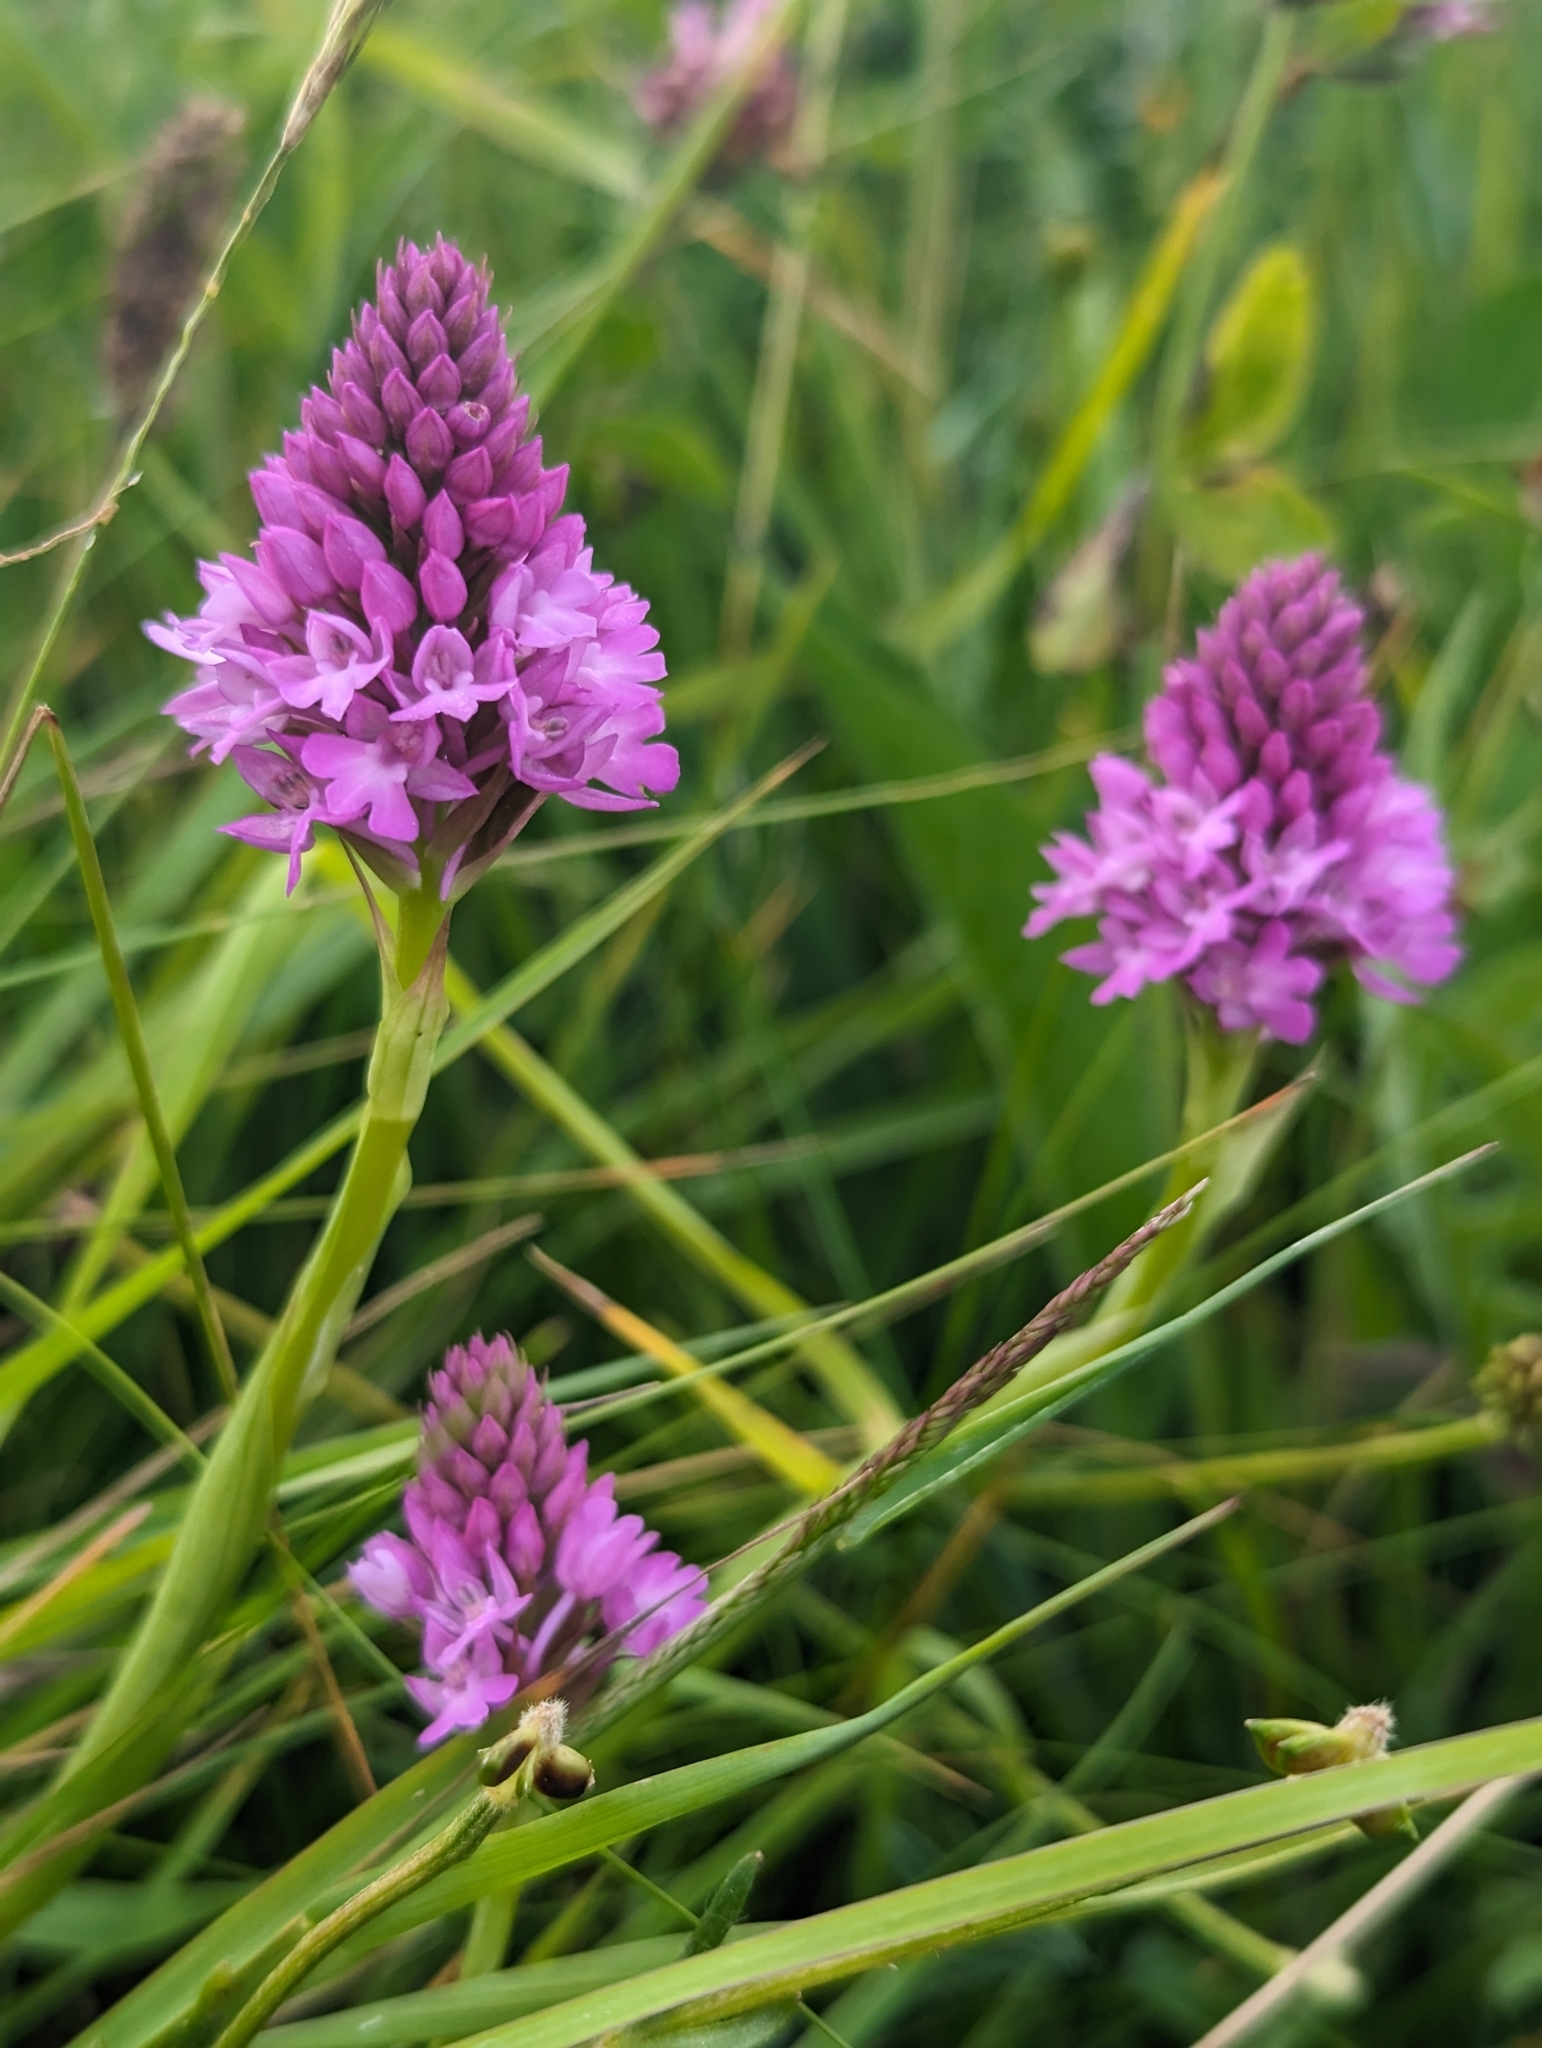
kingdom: Plantae
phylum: Tracheophyta
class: Liliopsida
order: Asparagales
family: Orchidaceae
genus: Anacamptis
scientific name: Anacamptis pyramidalis
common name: Pyramidal orchid
